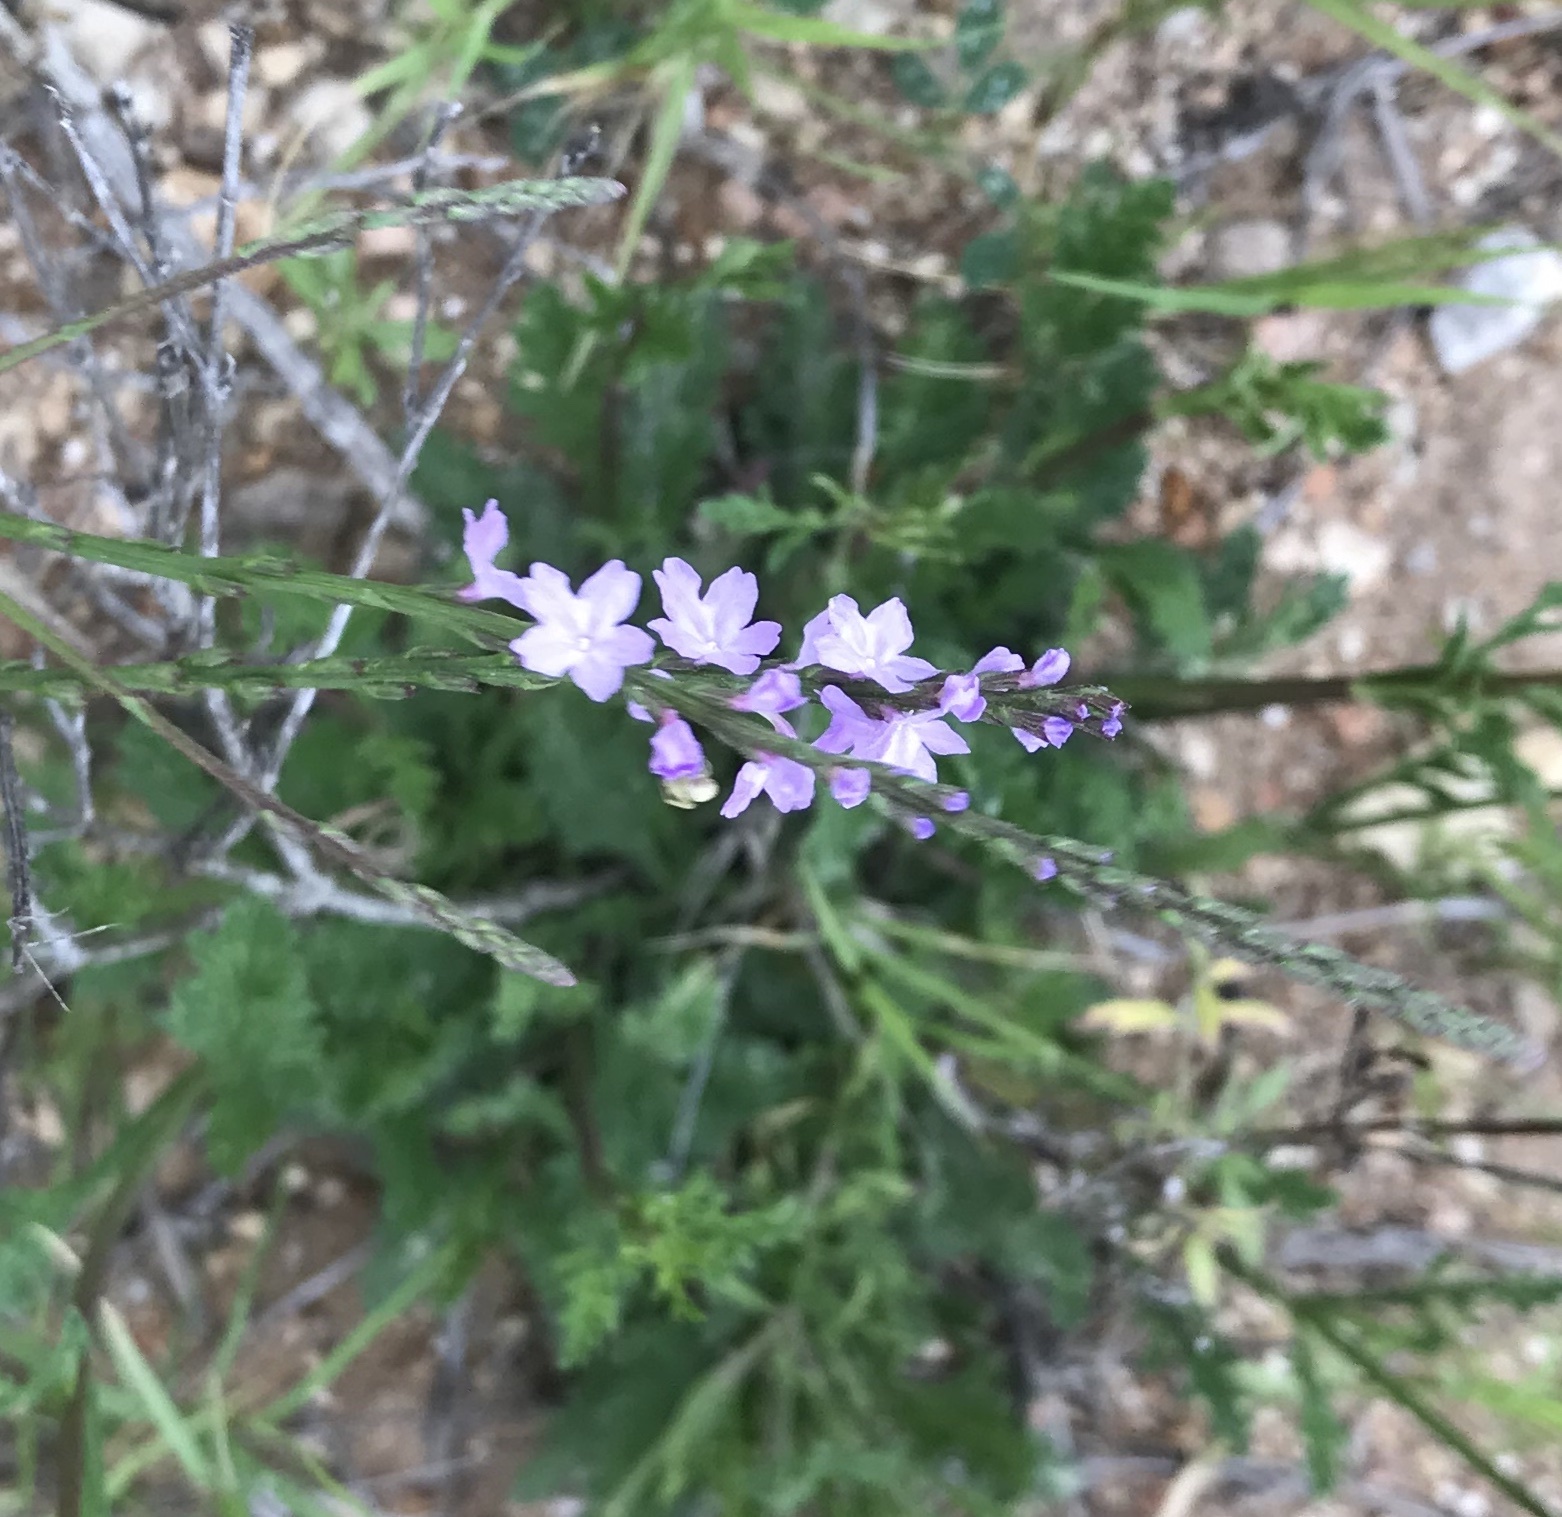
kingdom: Plantae
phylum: Tracheophyta
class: Magnoliopsida
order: Lamiales
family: Verbenaceae
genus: Verbena
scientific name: Verbena halei
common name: Texas vervain
